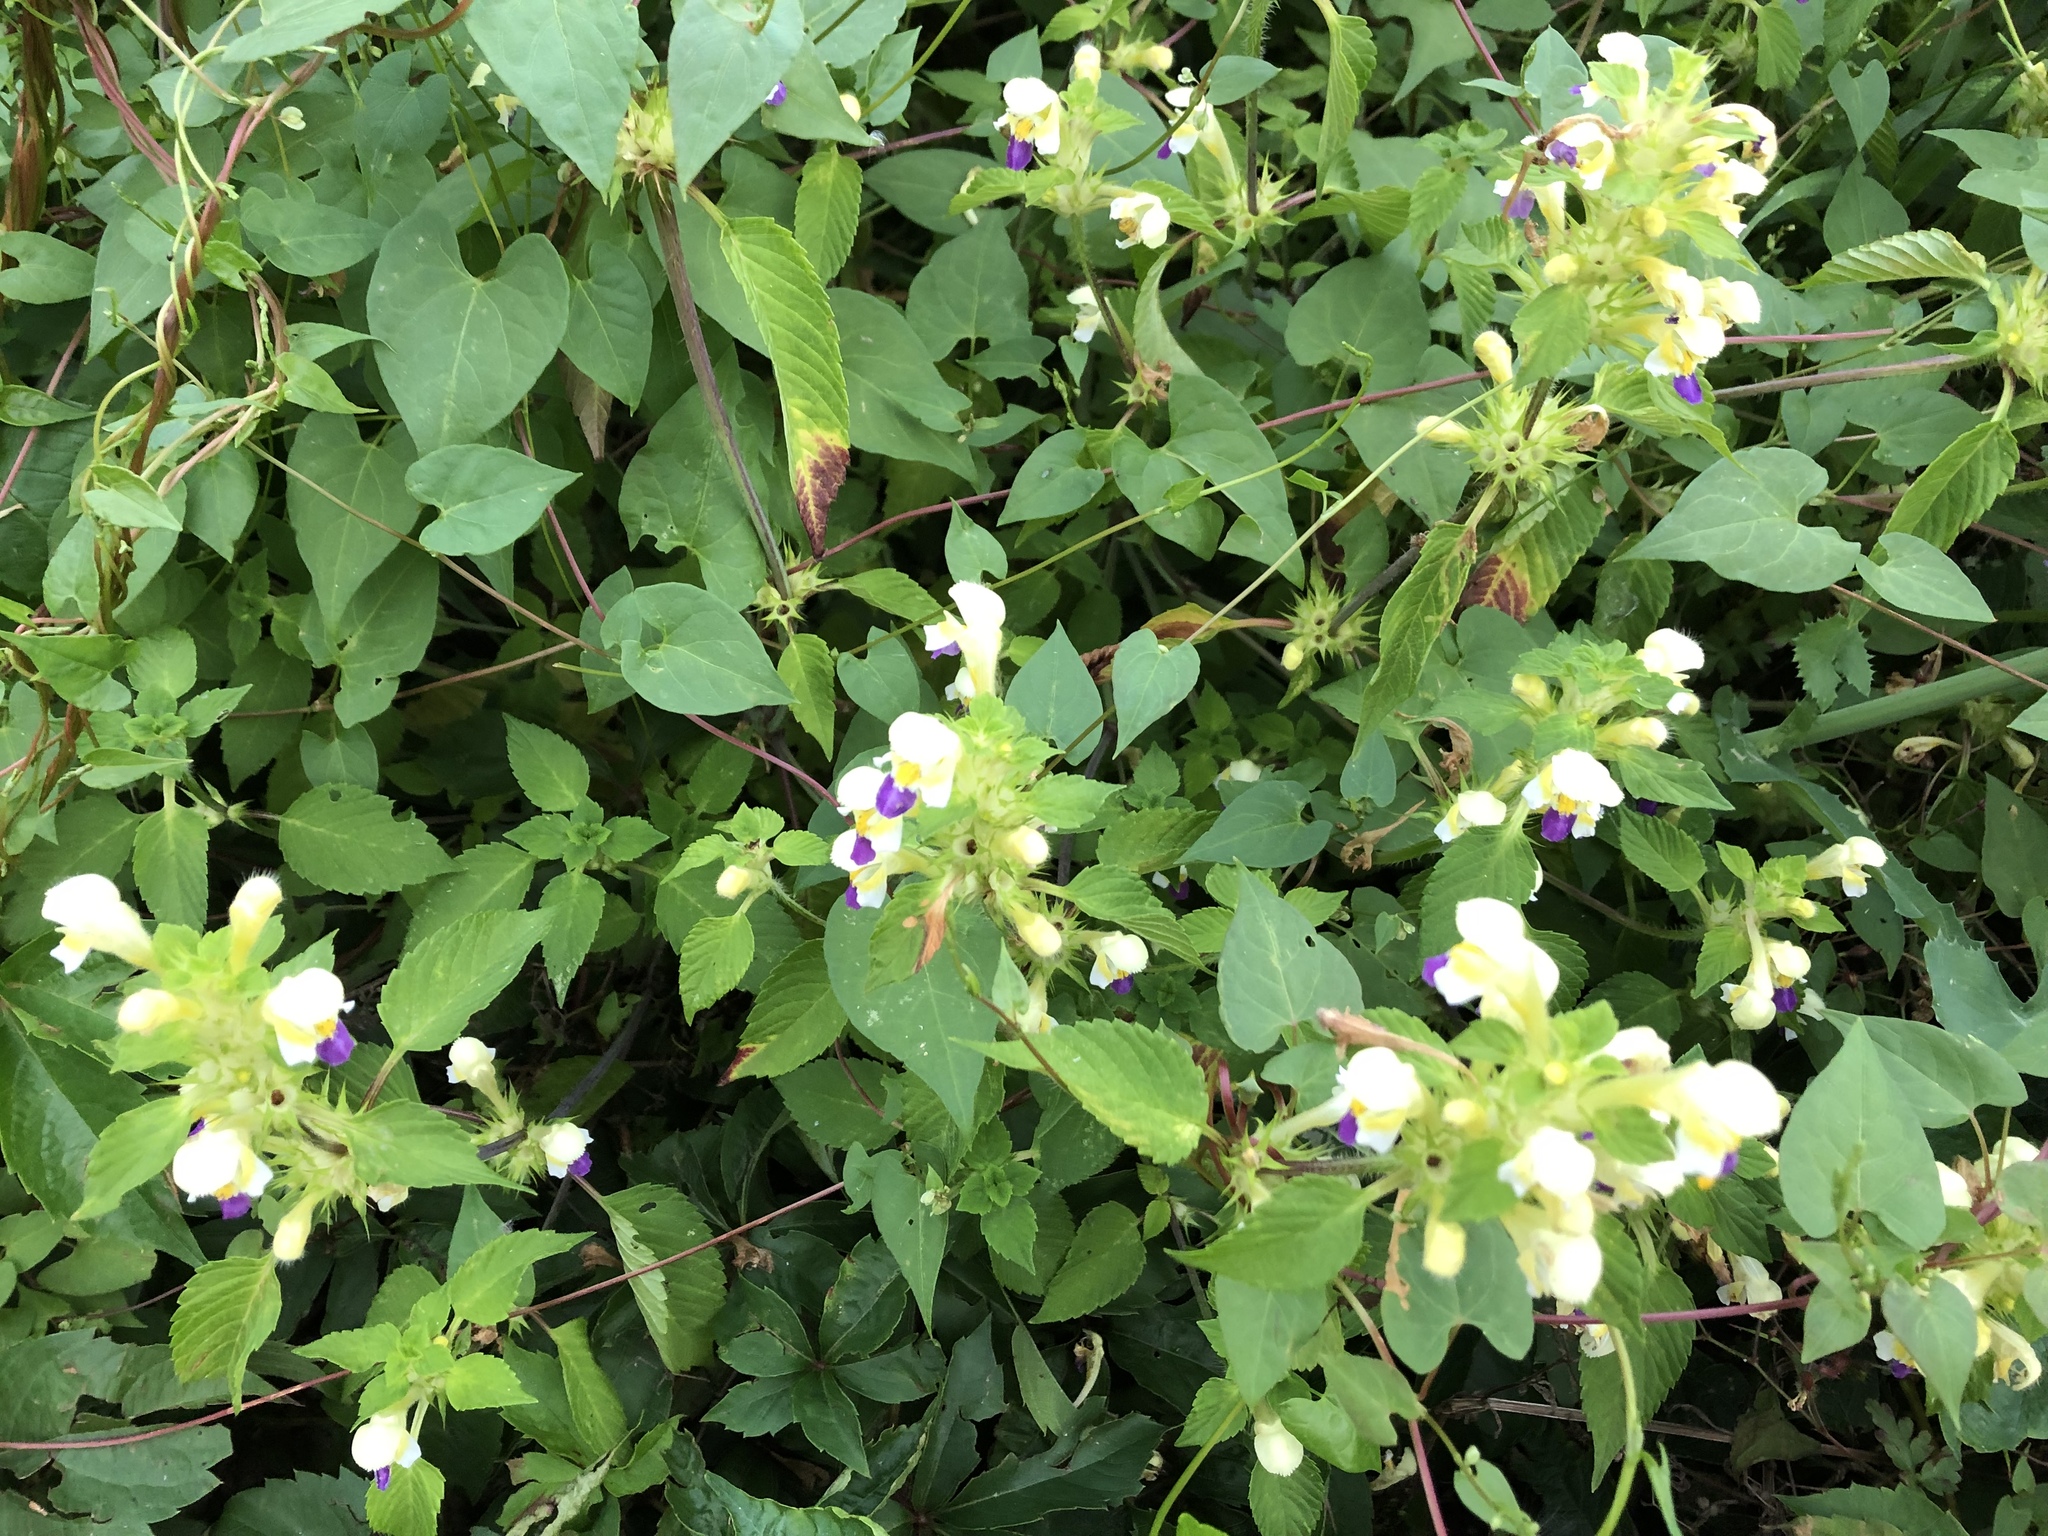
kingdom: Plantae
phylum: Tracheophyta
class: Magnoliopsida
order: Lamiales
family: Lamiaceae
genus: Galeopsis
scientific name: Galeopsis speciosa
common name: Large-flowered hemp-nettle
